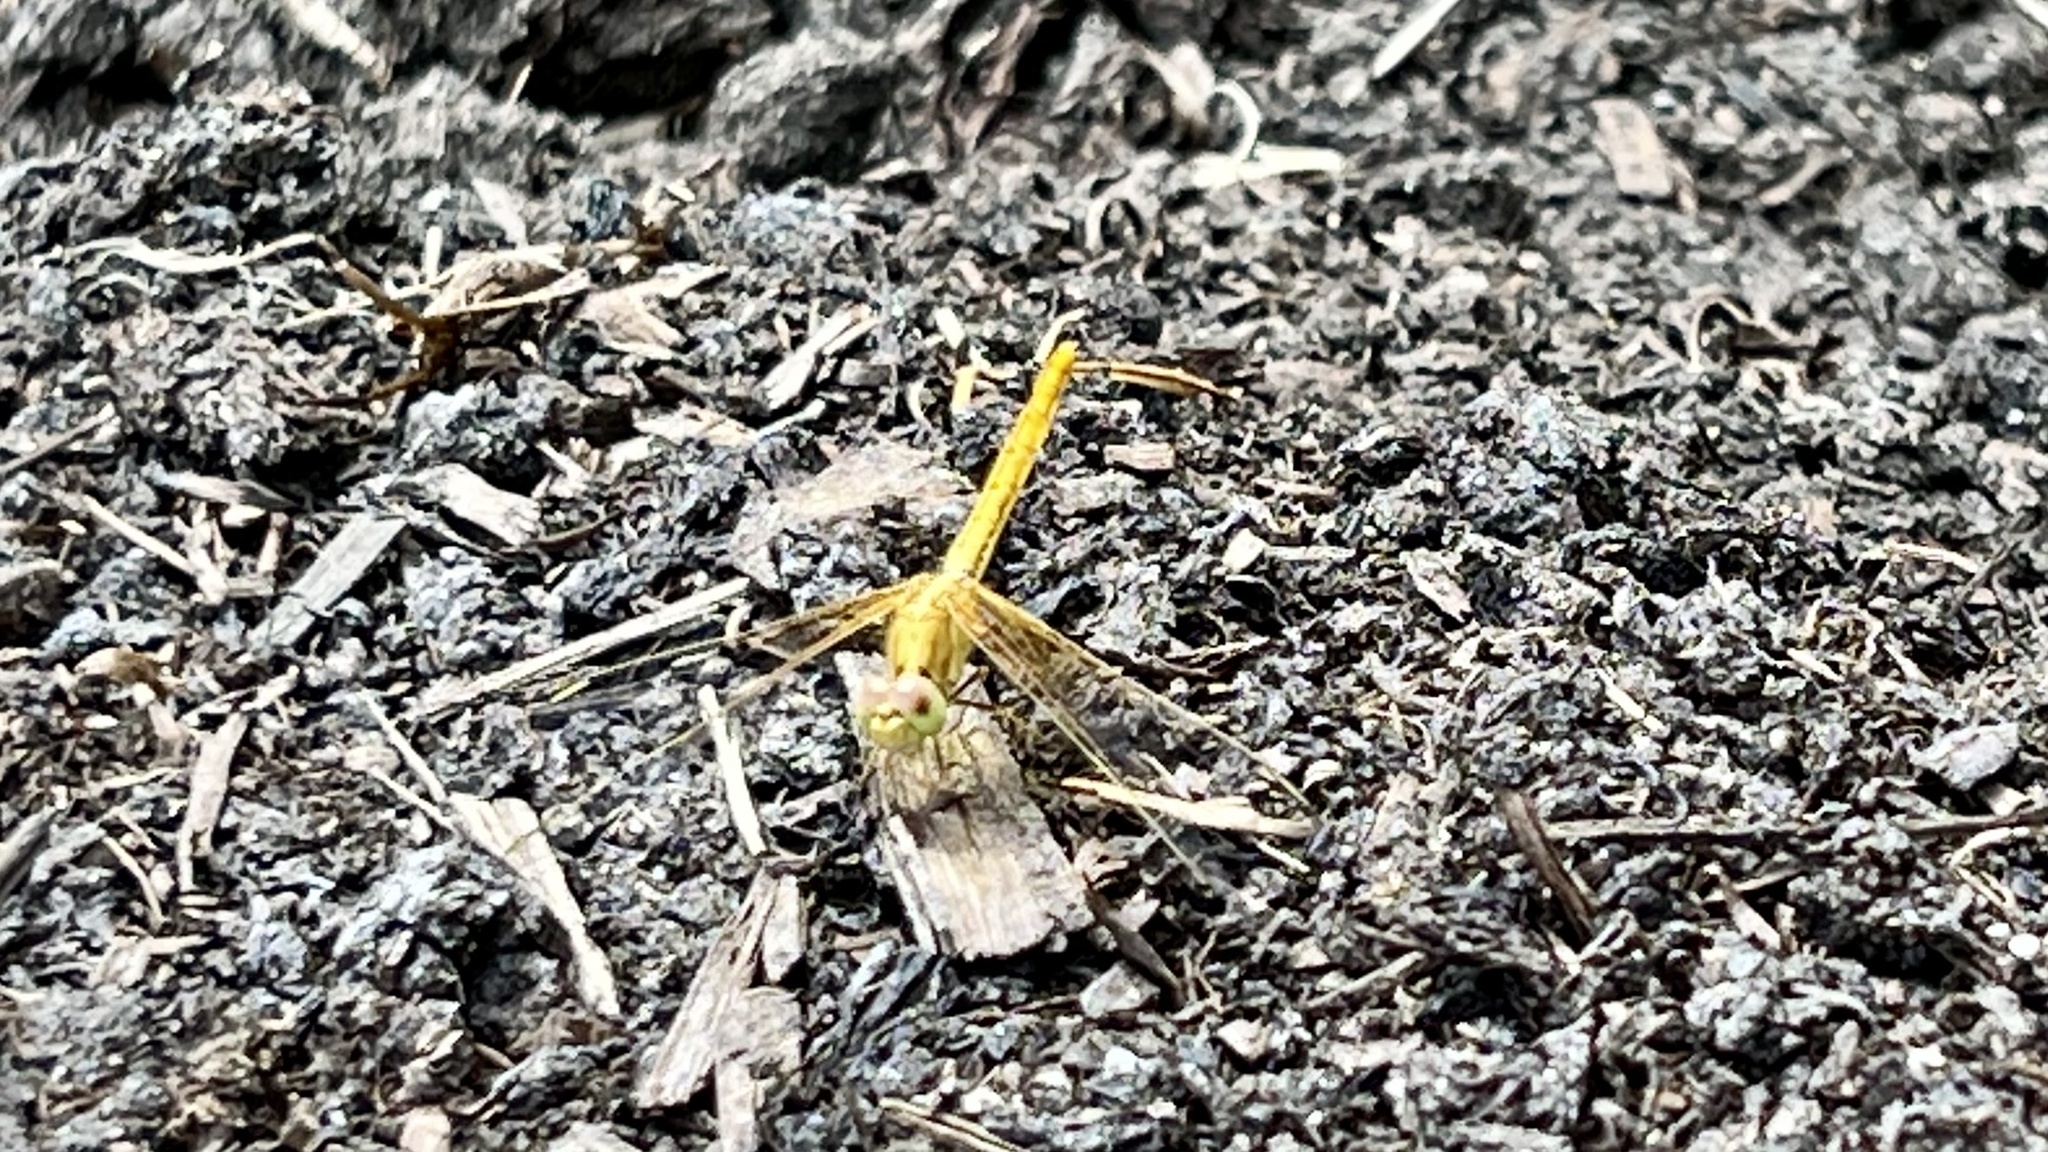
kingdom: Animalia
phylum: Arthropoda
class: Insecta
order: Odonata
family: Libellulidae
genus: Diplacodes
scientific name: Diplacodes haematodes
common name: Scarlet percher
